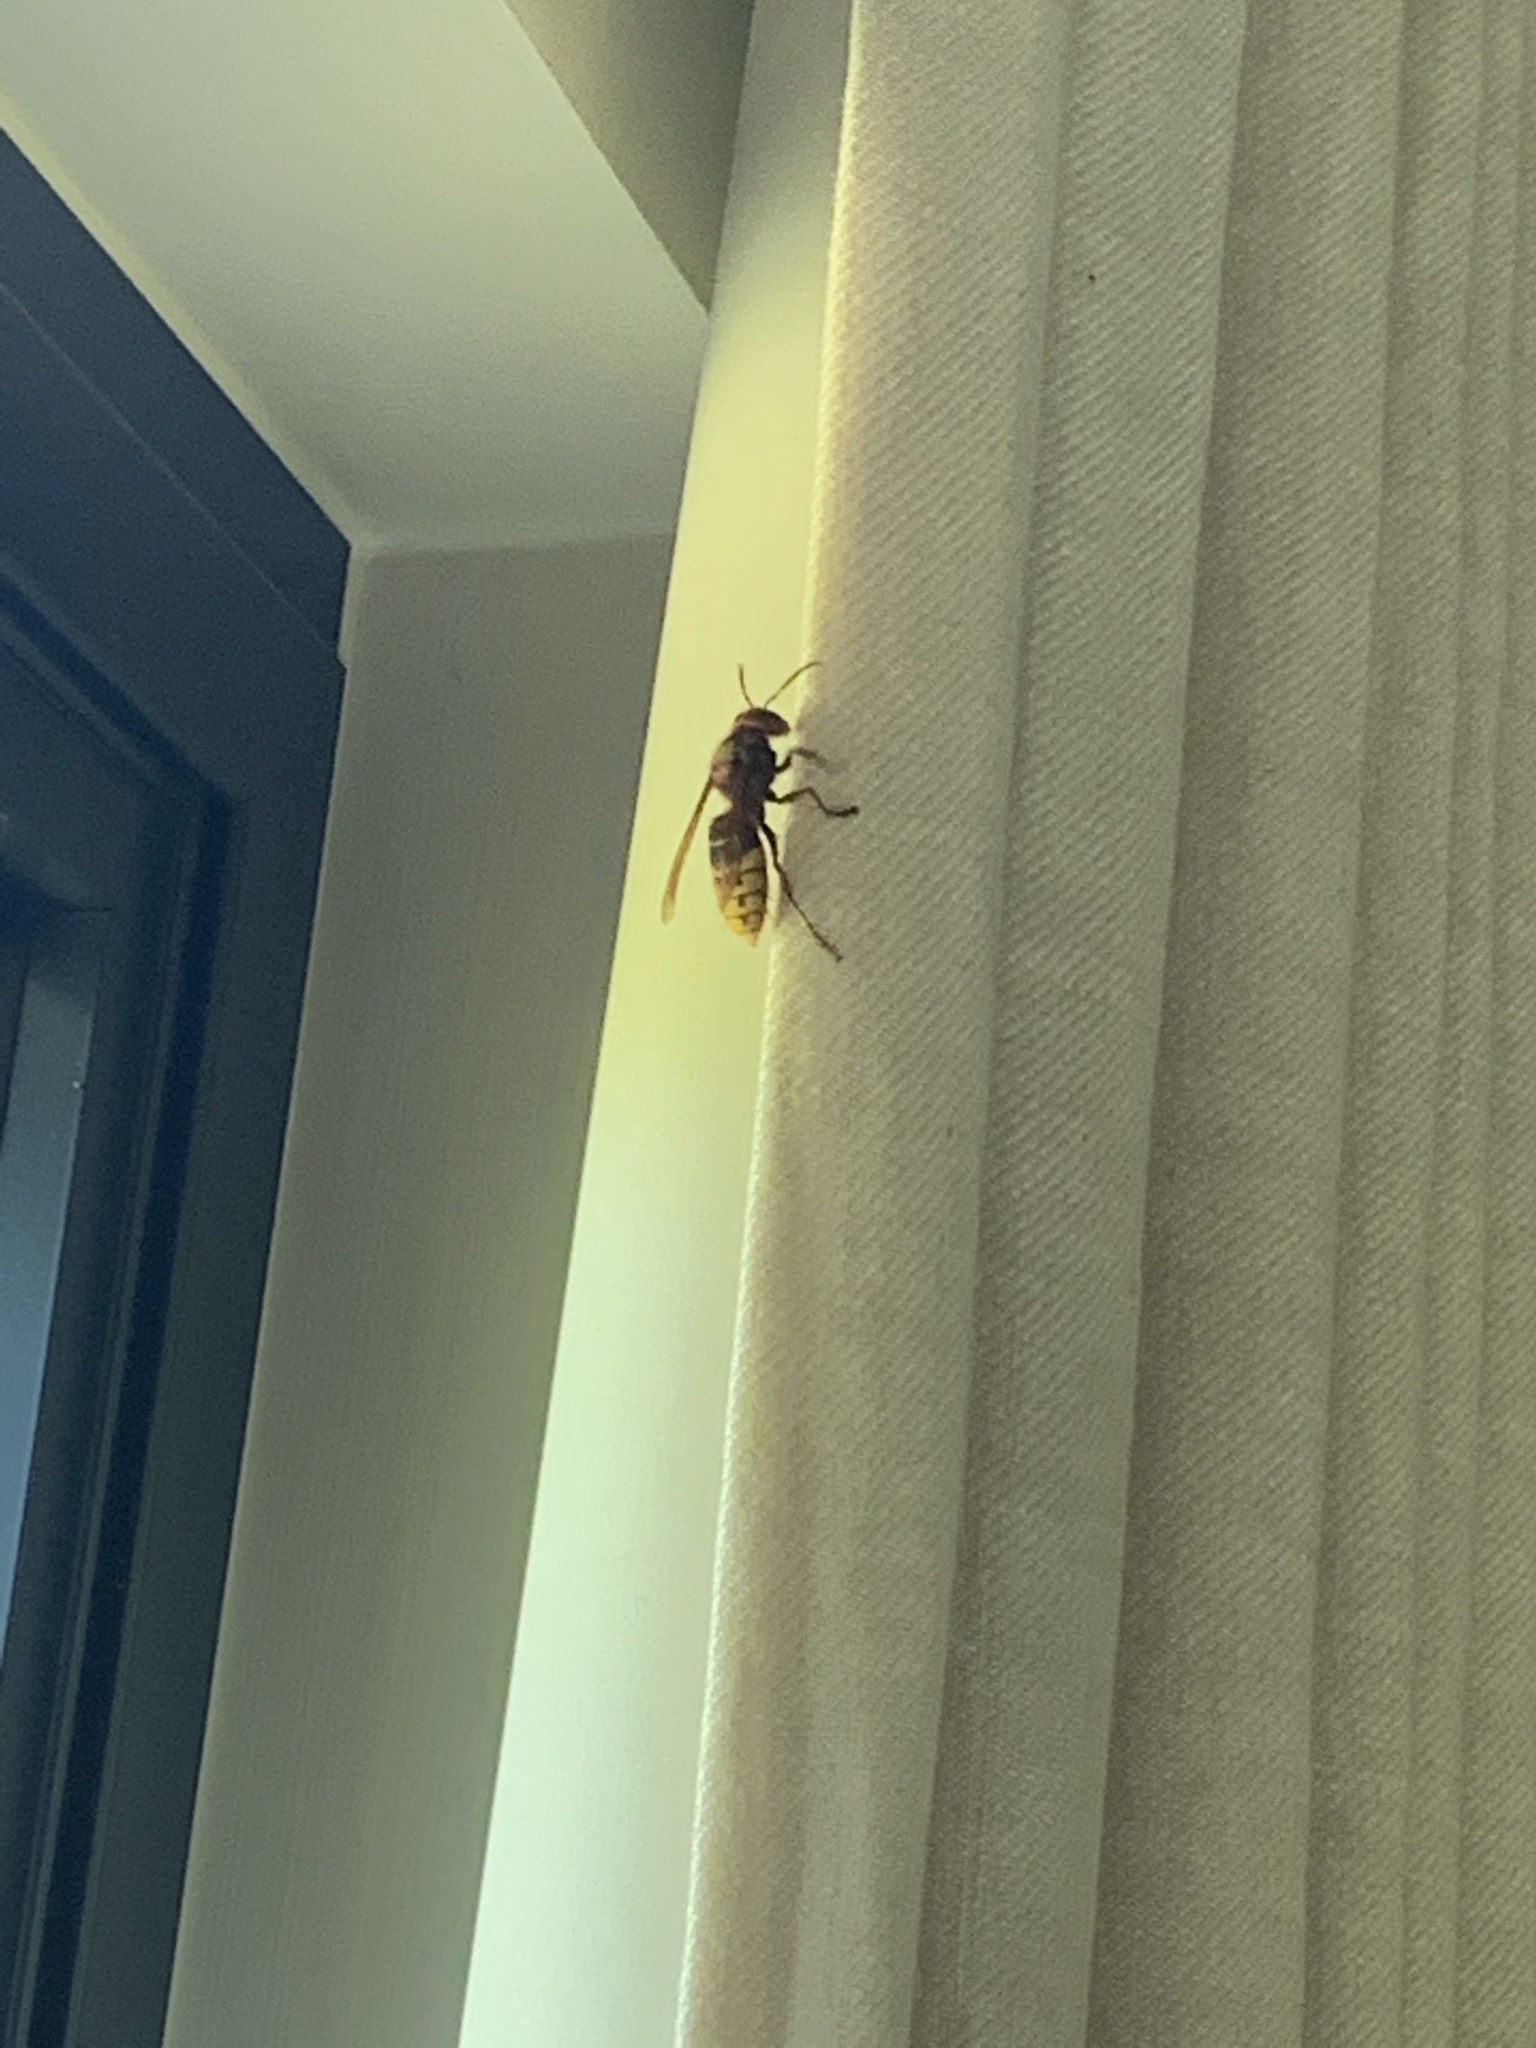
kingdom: Animalia
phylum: Arthropoda
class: Insecta
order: Hymenoptera
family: Vespidae
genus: Vespa
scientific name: Vespa crabro
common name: Hornet
